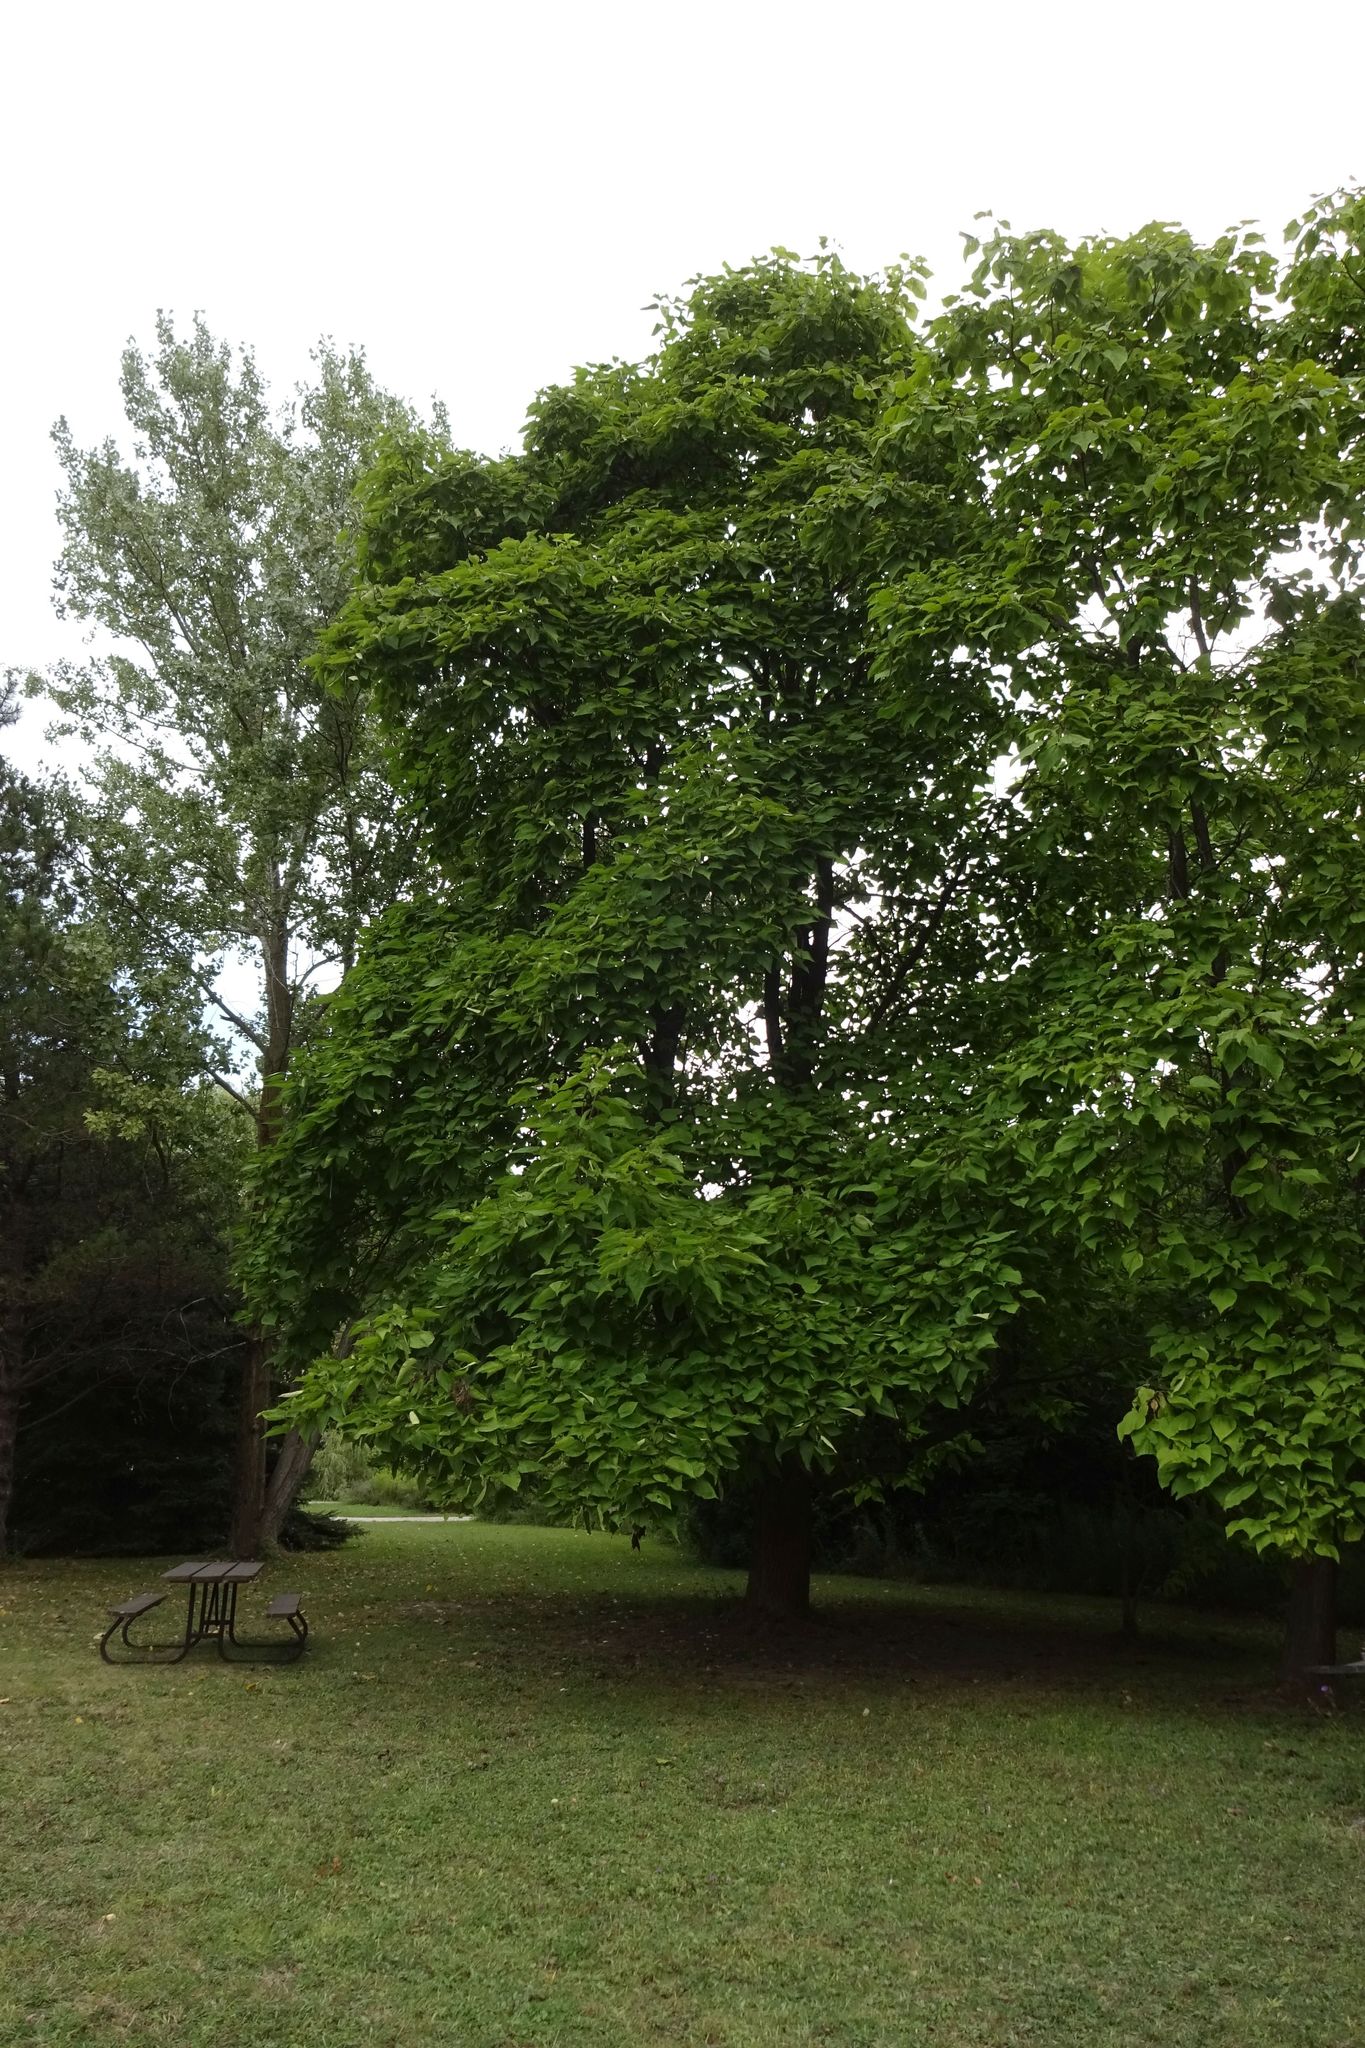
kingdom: Plantae
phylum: Tracheophyta
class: Magnoliopsida
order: Lamiales
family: Bignoniaceae
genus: Catalpa
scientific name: Catalpa speciosa
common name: Northern catalpa
